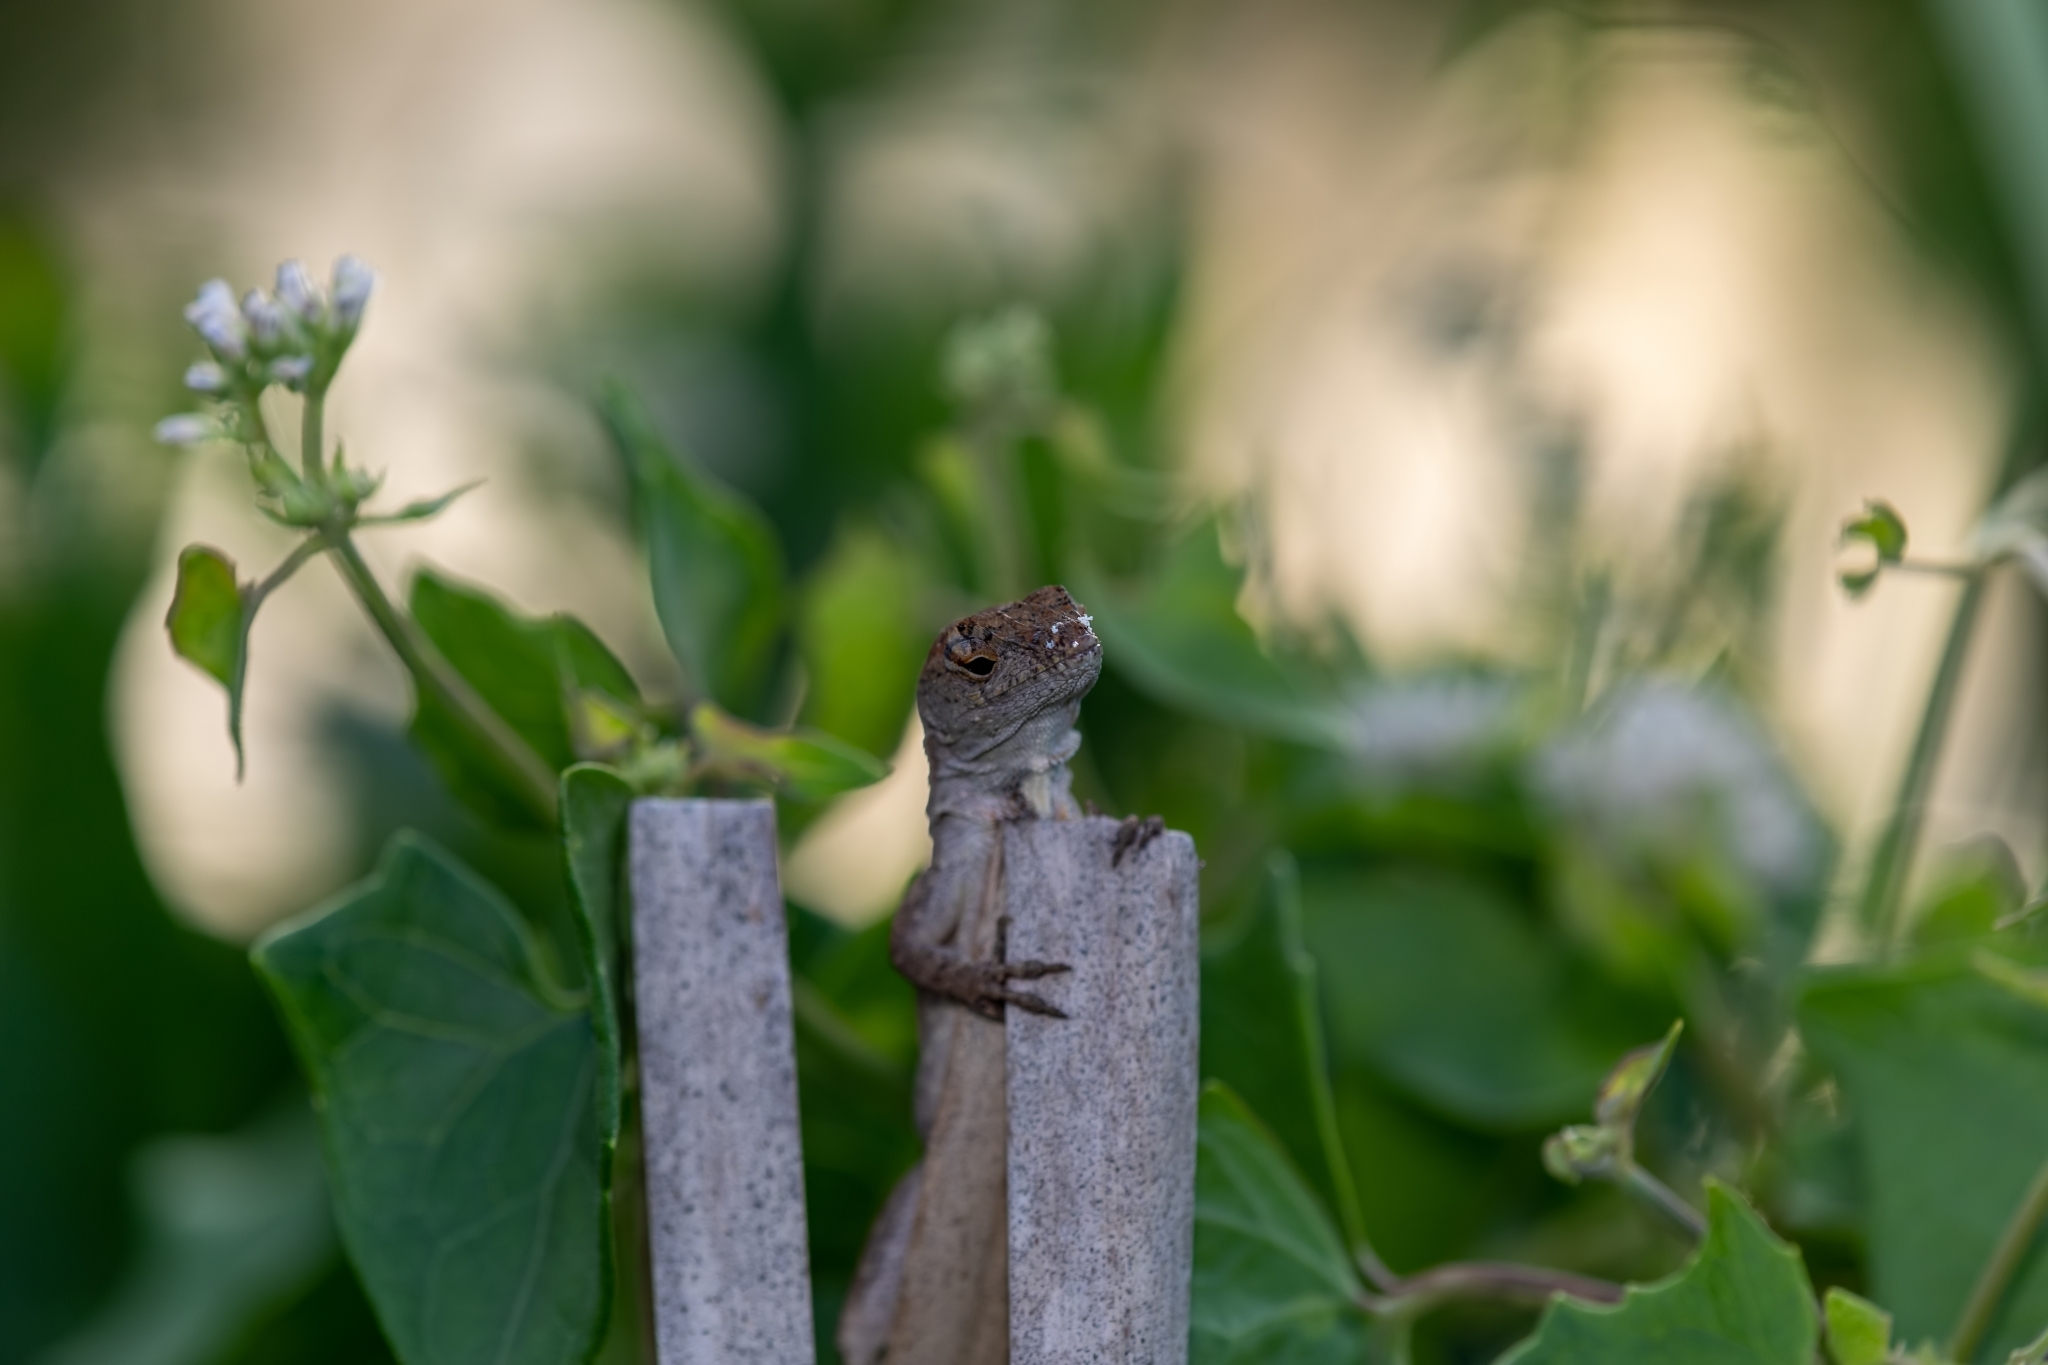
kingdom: Animalia
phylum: Chordata
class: Squamata
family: Dactyloidae
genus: Anolis
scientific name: Anolis sagrei
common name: Brown anole
